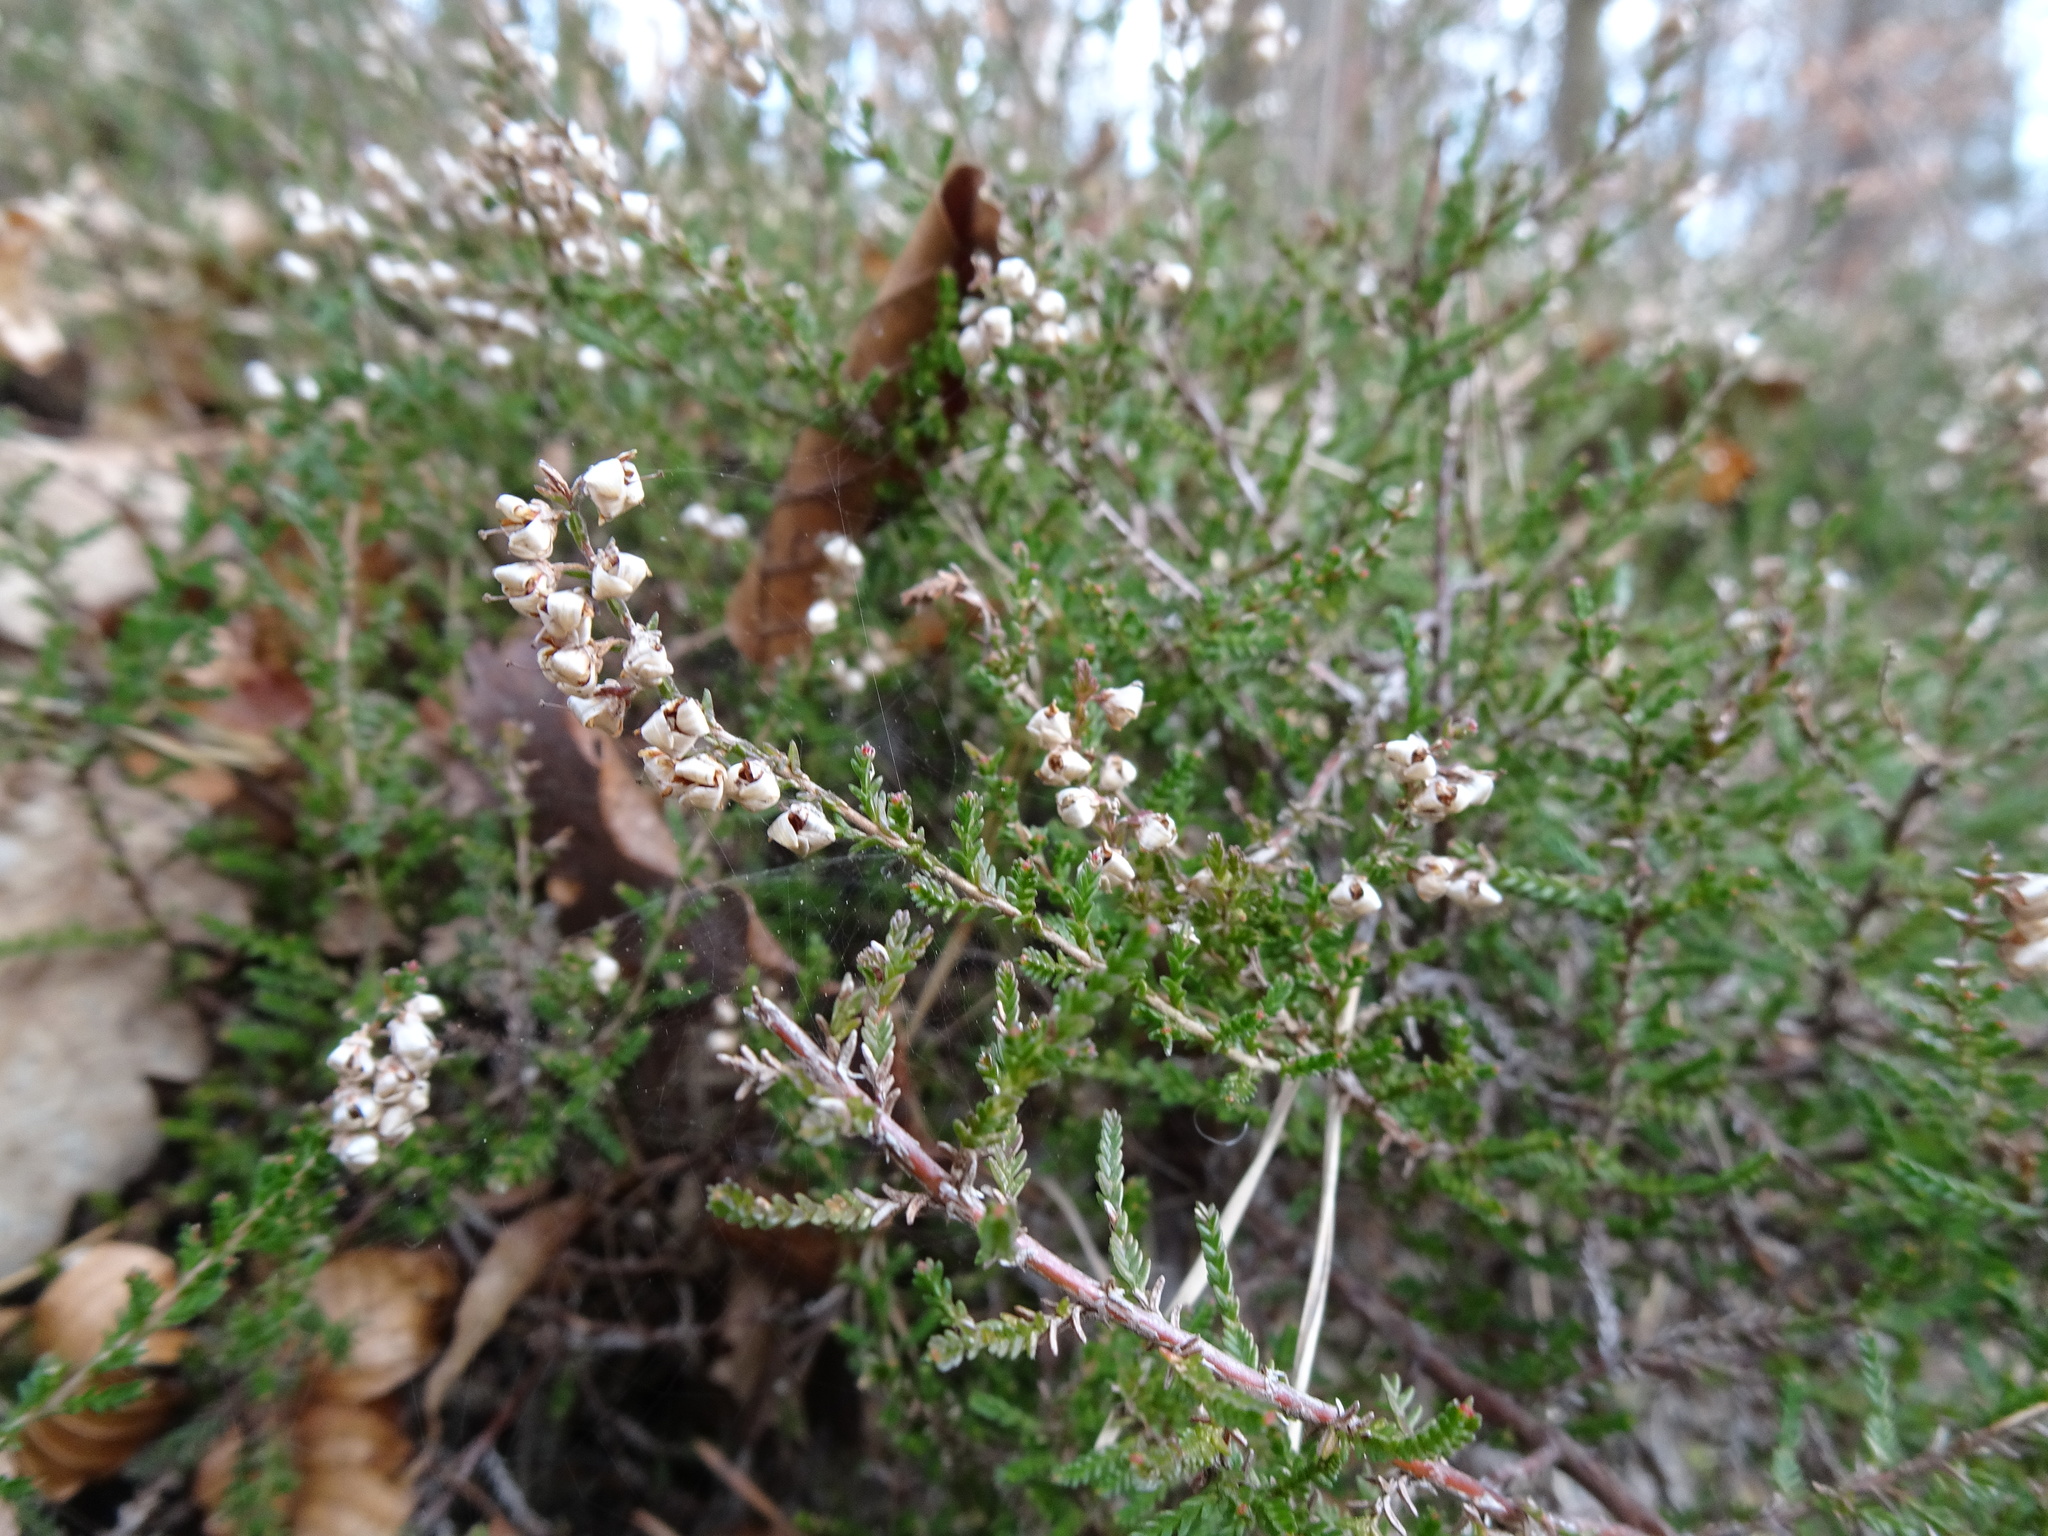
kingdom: Plantae
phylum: Tracheophyta
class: Magnoliopsida
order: Ericales
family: Ericaceae
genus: Calluna
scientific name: Calluna vulgaris
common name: Heather
